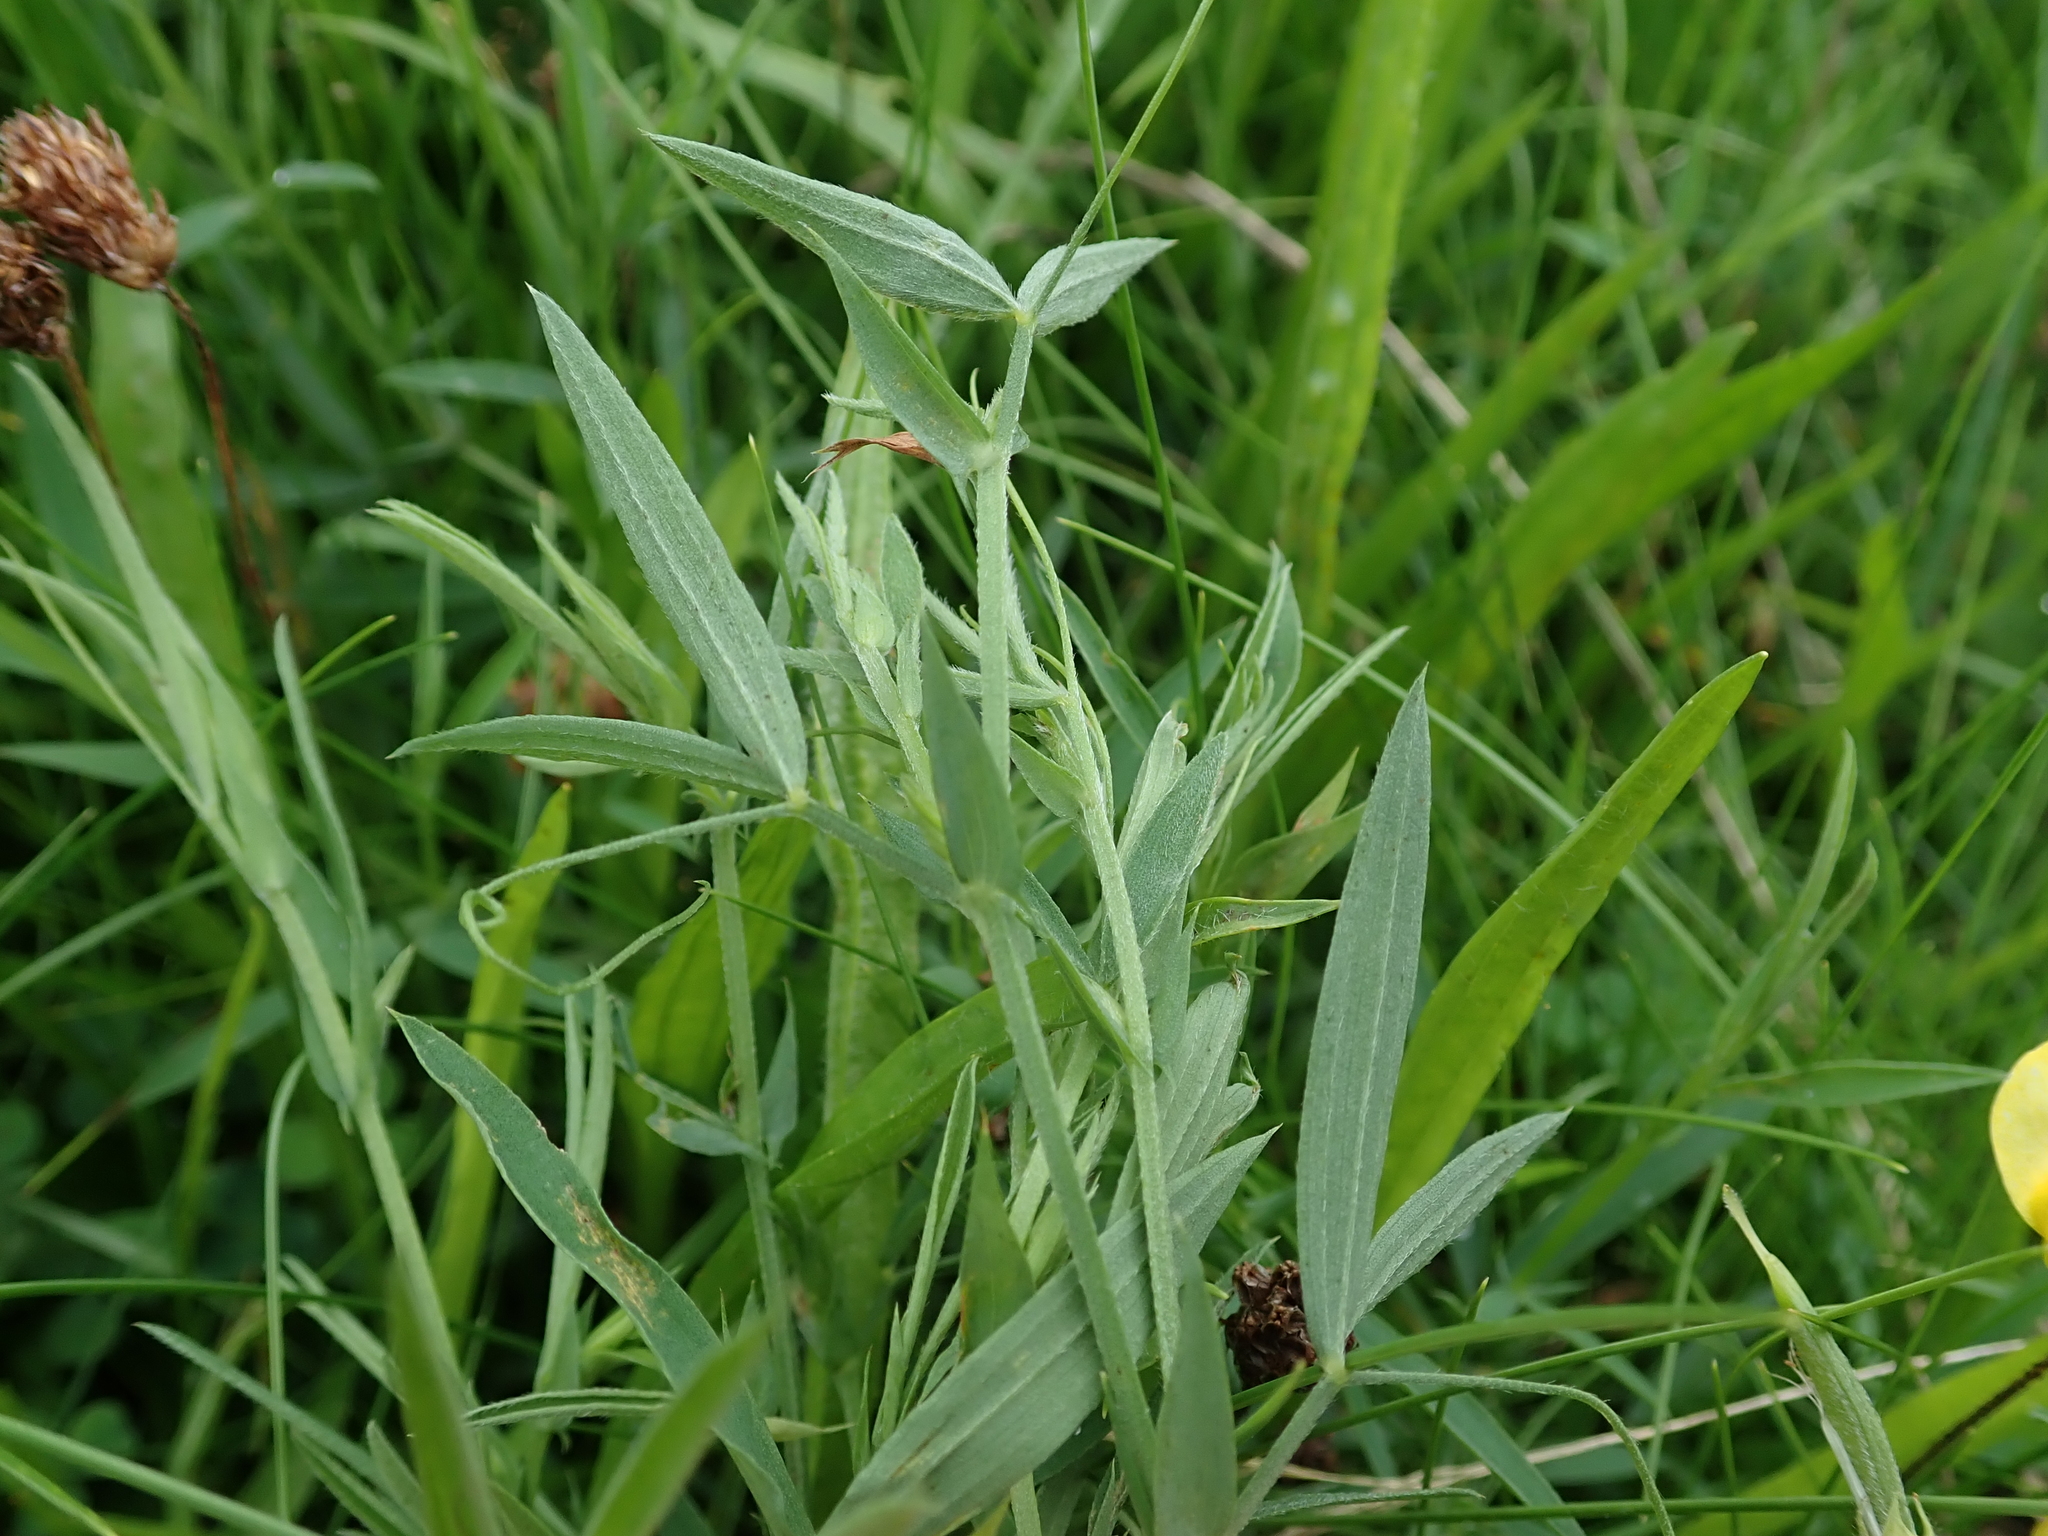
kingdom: Plantae
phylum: Tracheophyta
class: Magnoliopsida
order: Fabales
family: Fabaceae
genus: Lathyrus
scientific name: Lathyrus pratensis
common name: Meadow vetchling
